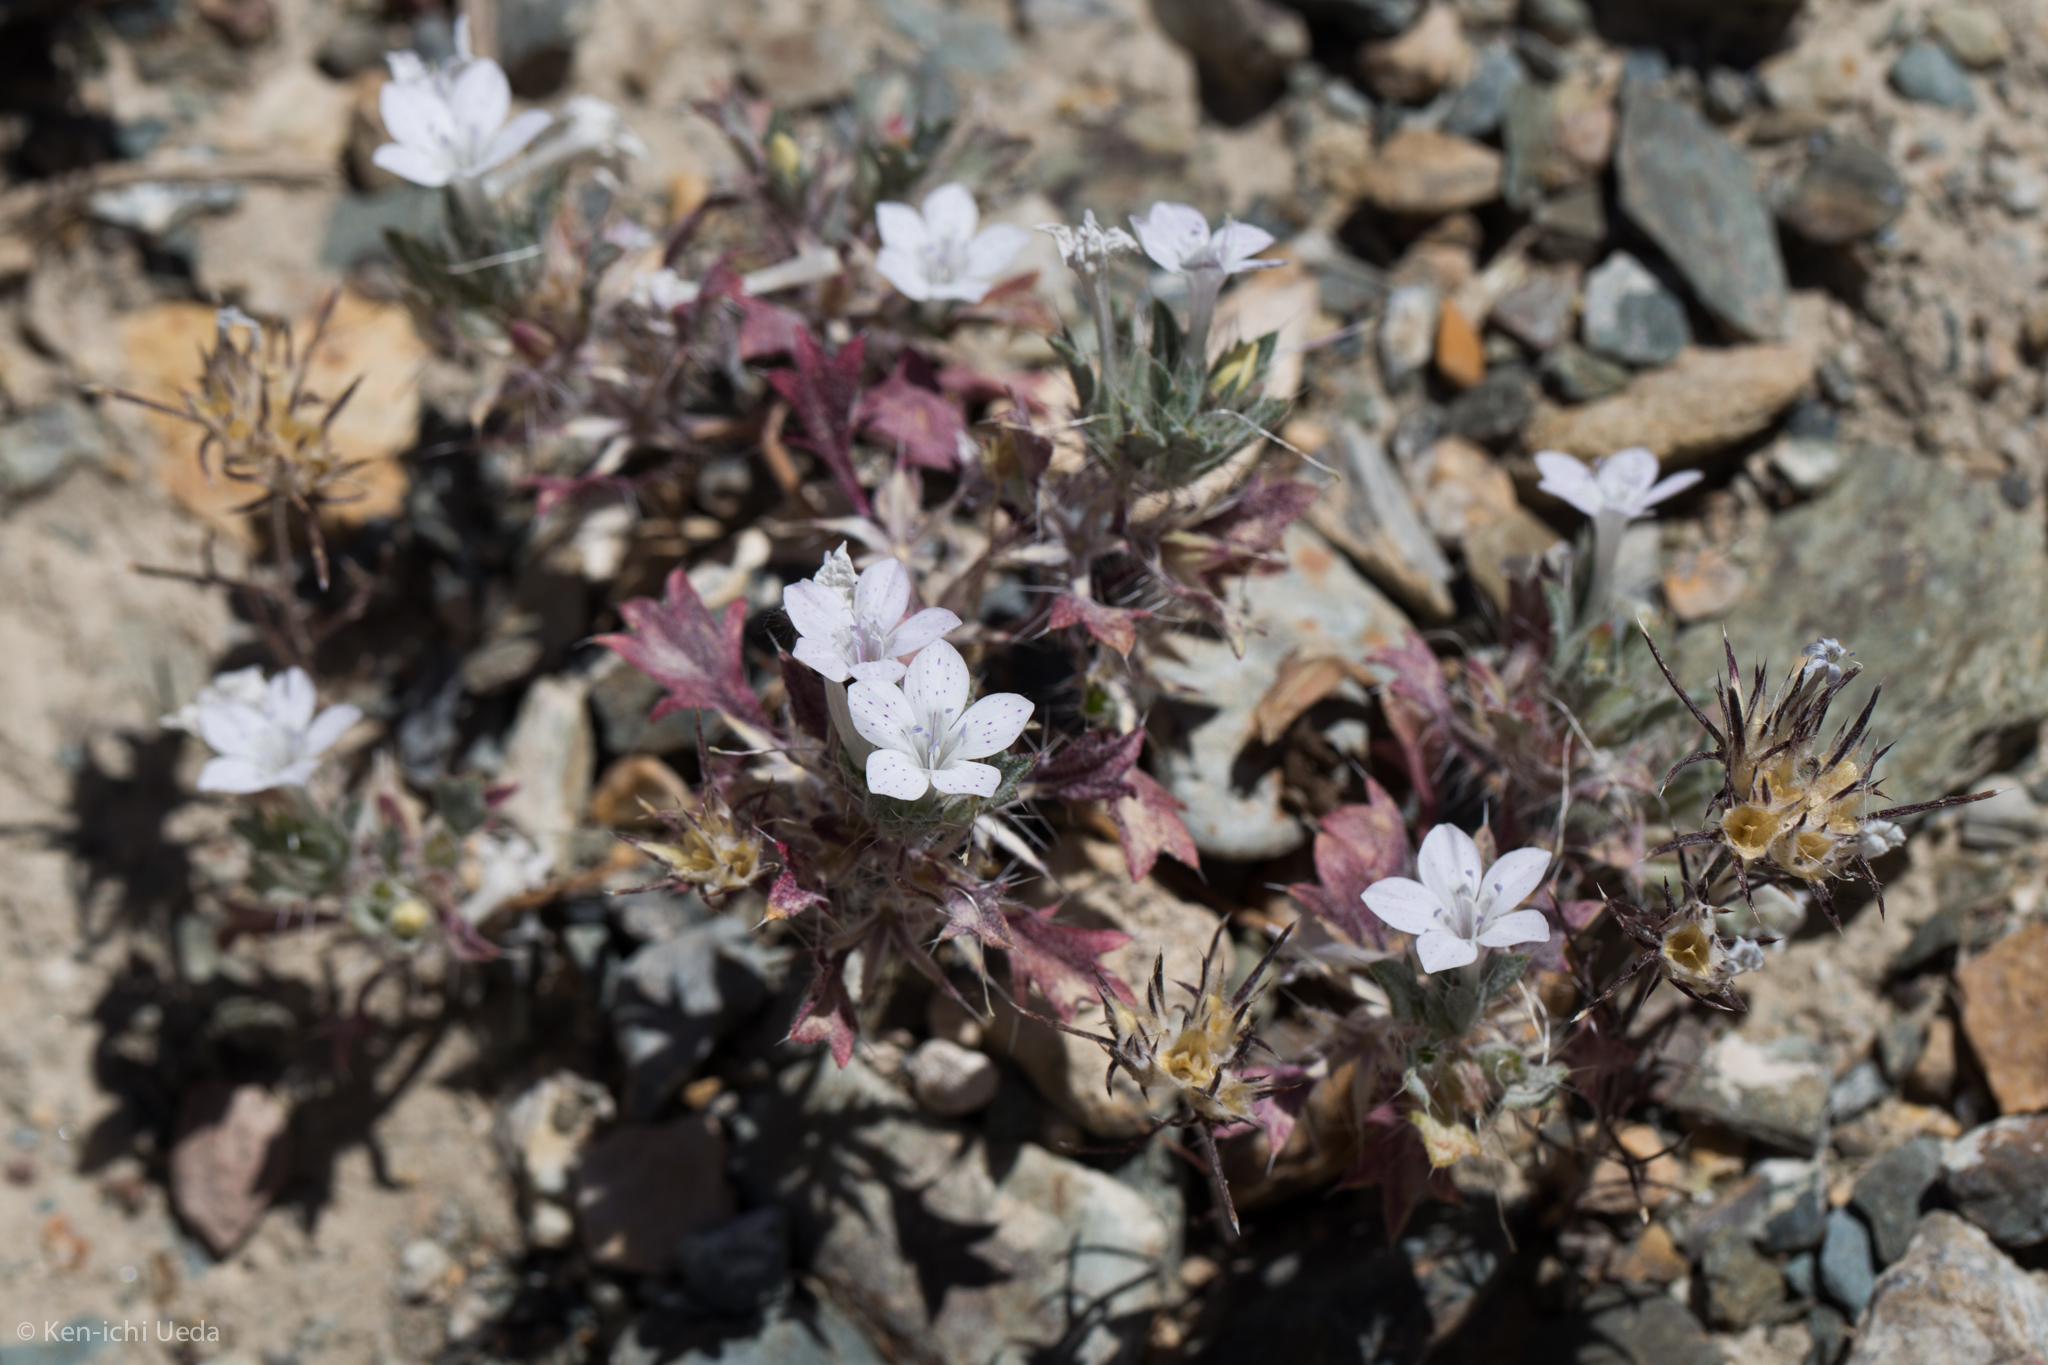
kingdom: Plantae
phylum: Tracheophyta
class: Magnoliopsida
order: Ericales
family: Polemoniaceae
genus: Langloisia
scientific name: Langloisia setosissima
